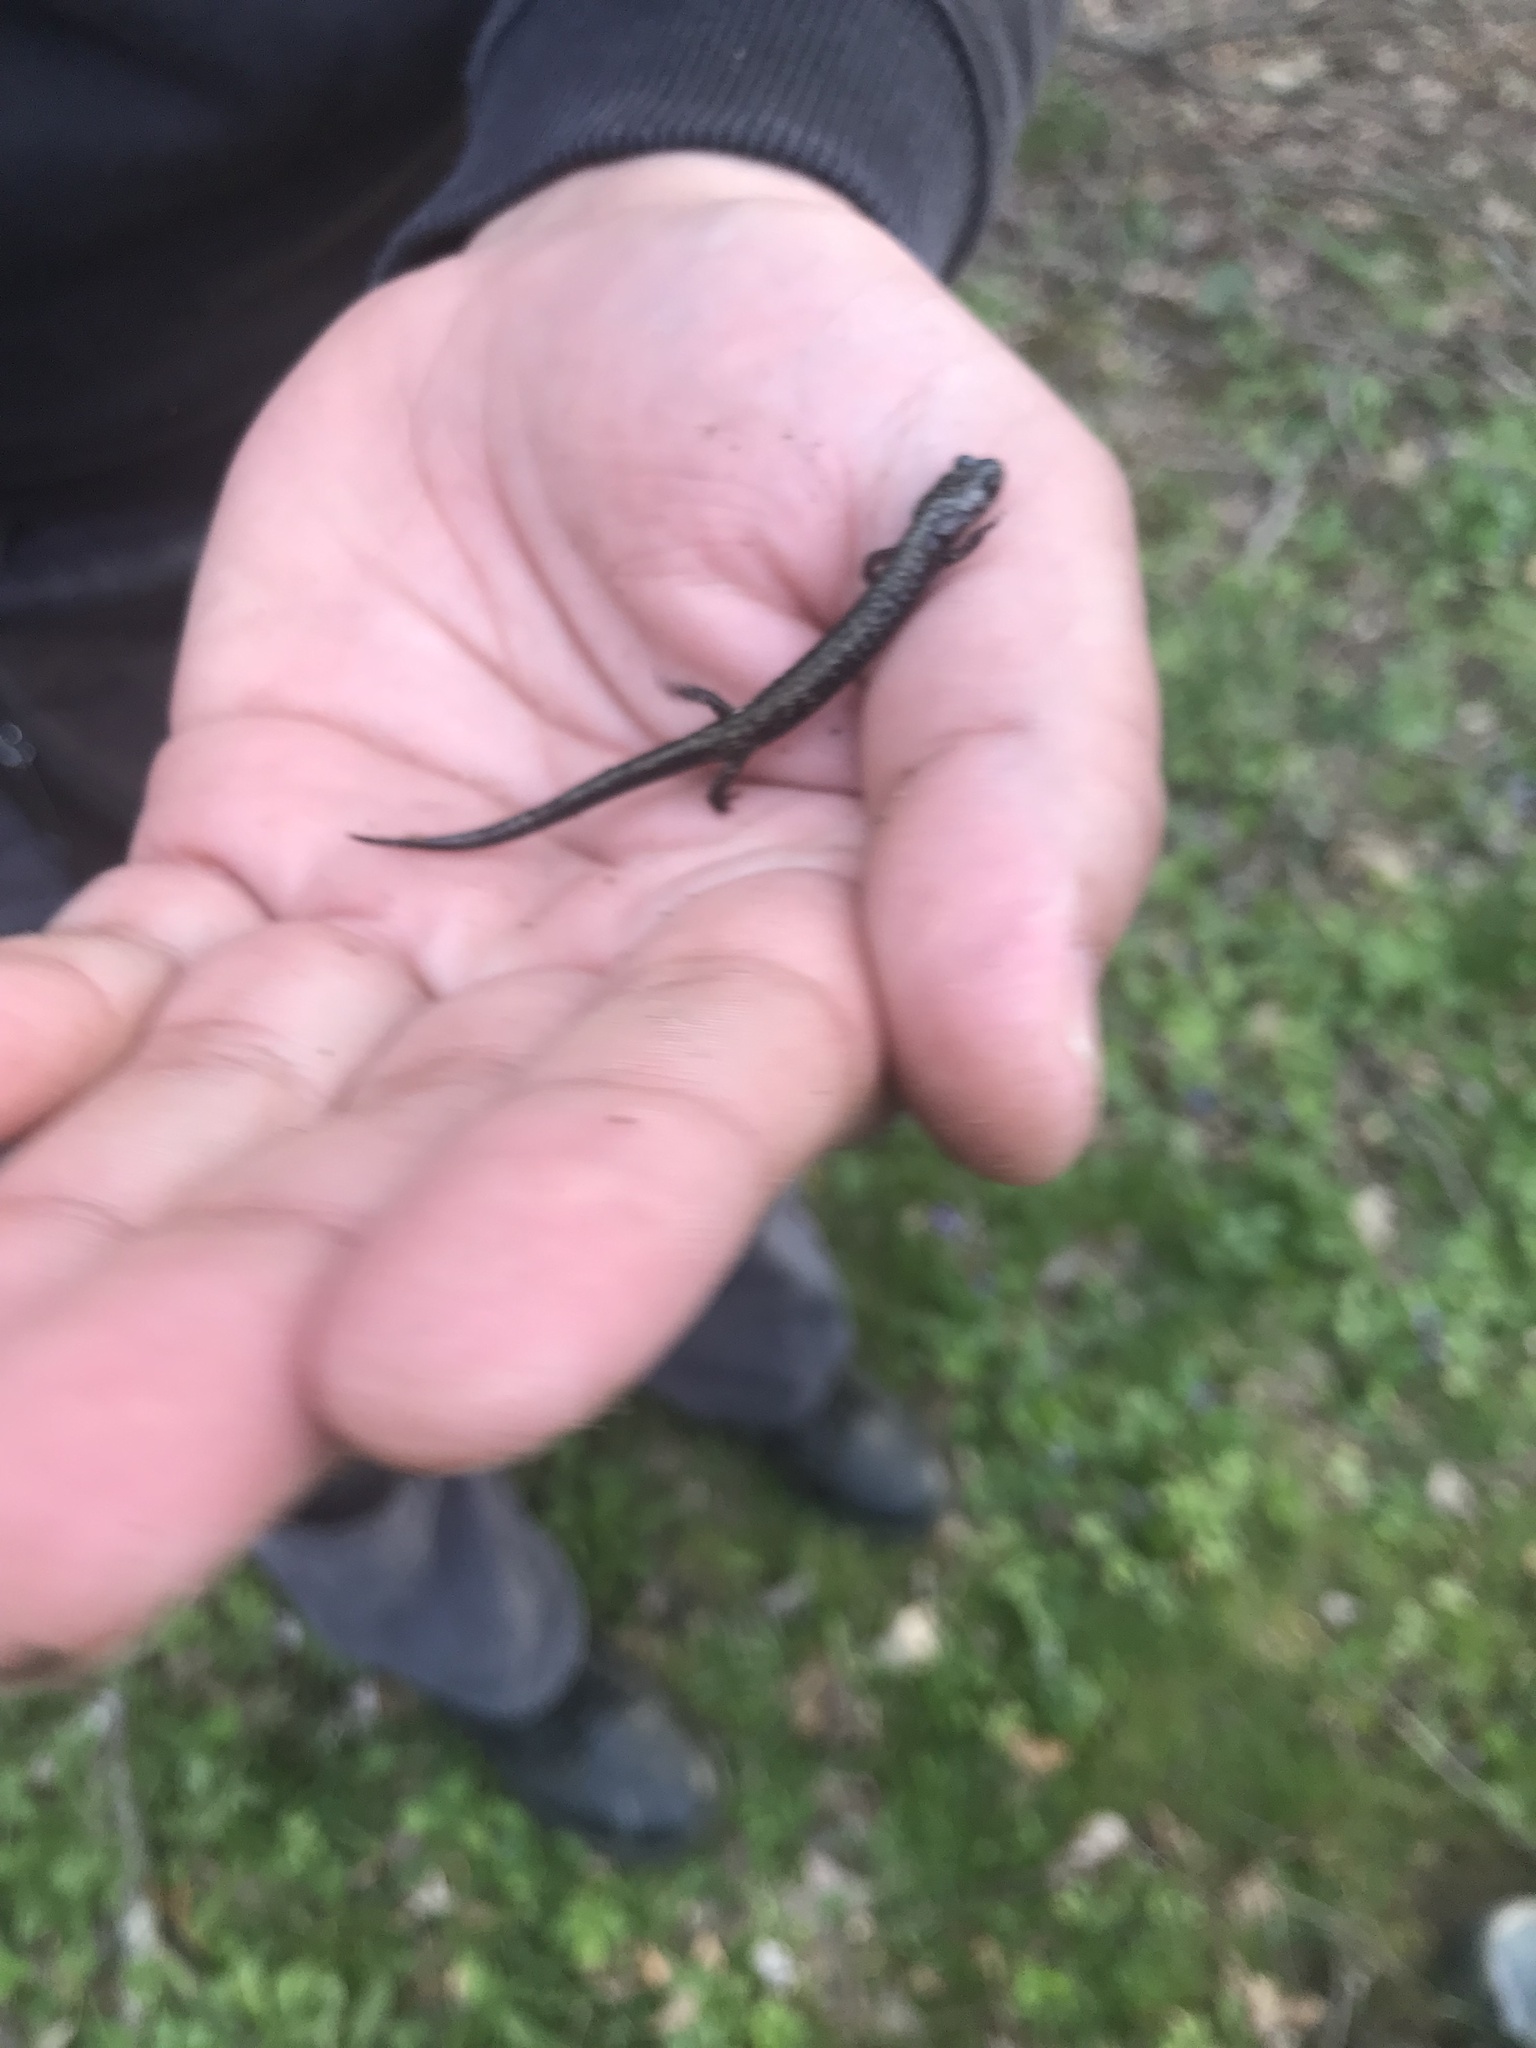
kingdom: Animalia
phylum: Chordata
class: Amphibia
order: Caudata
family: Plethodontidae
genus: Plethodon
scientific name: Plethodon hubrichti
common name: Peaks of otter salamander
